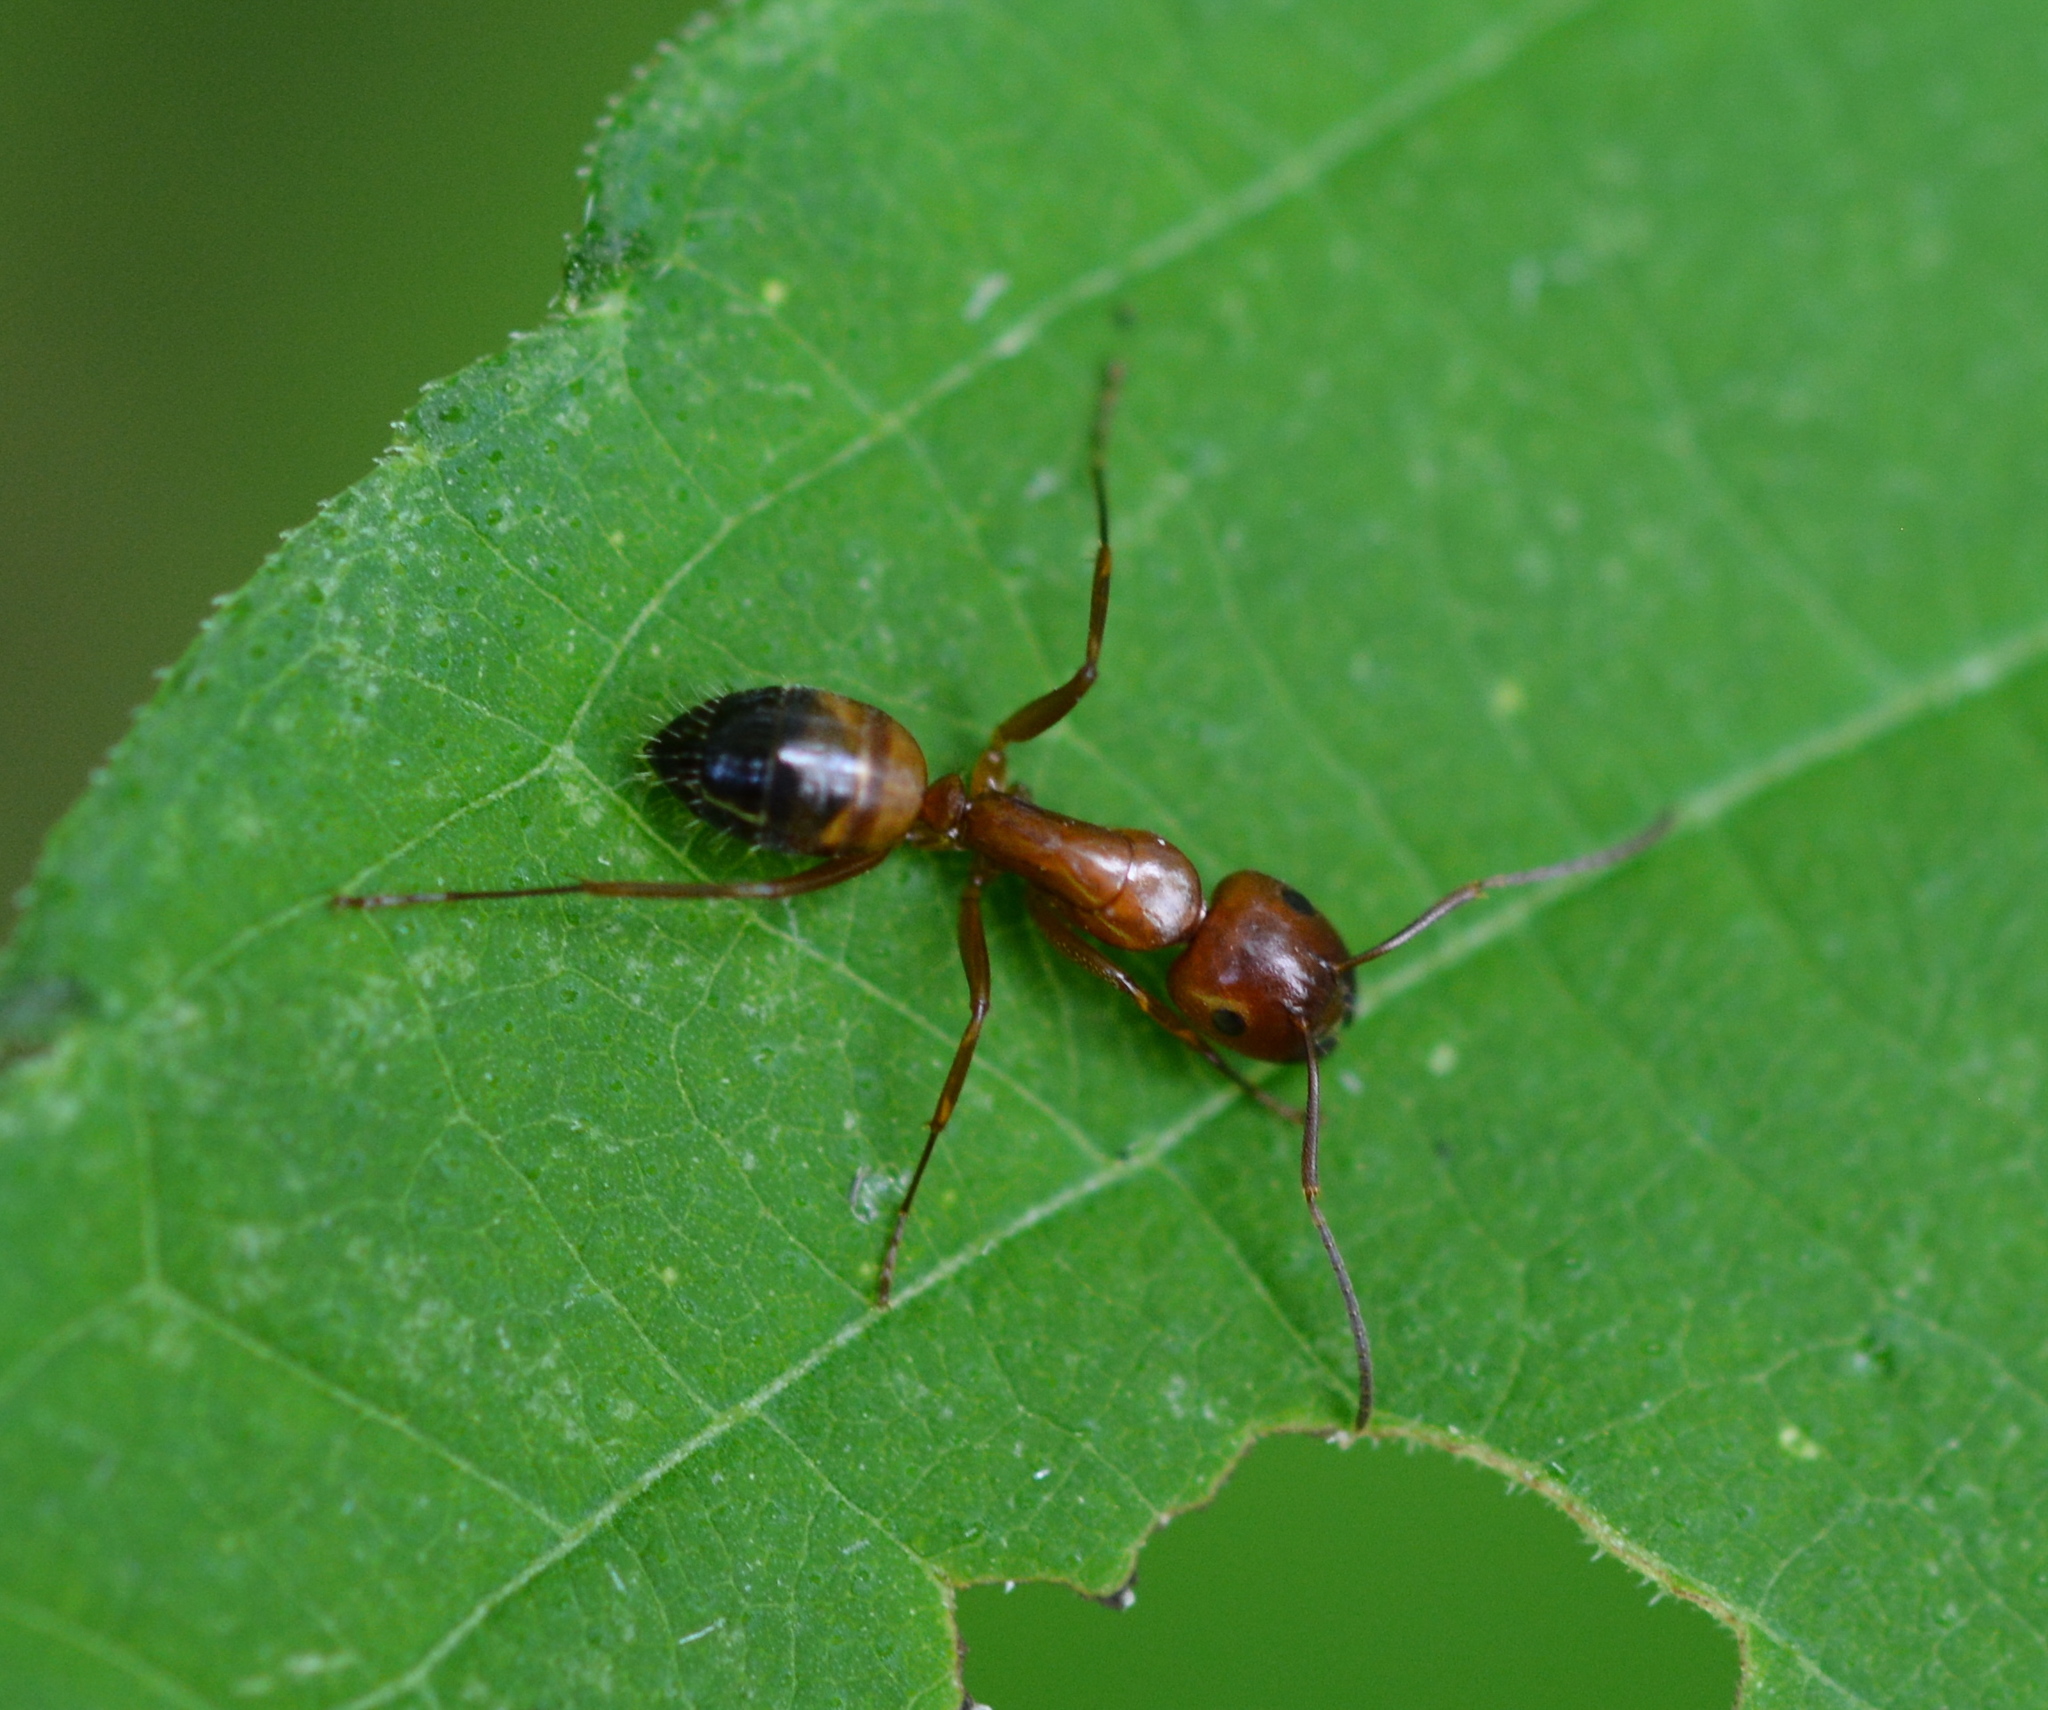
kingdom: Animalia
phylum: Arthropoda
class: Insecta
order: Hymenoptera
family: Formicidae
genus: Camponotus
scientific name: Camponotus snellingi
